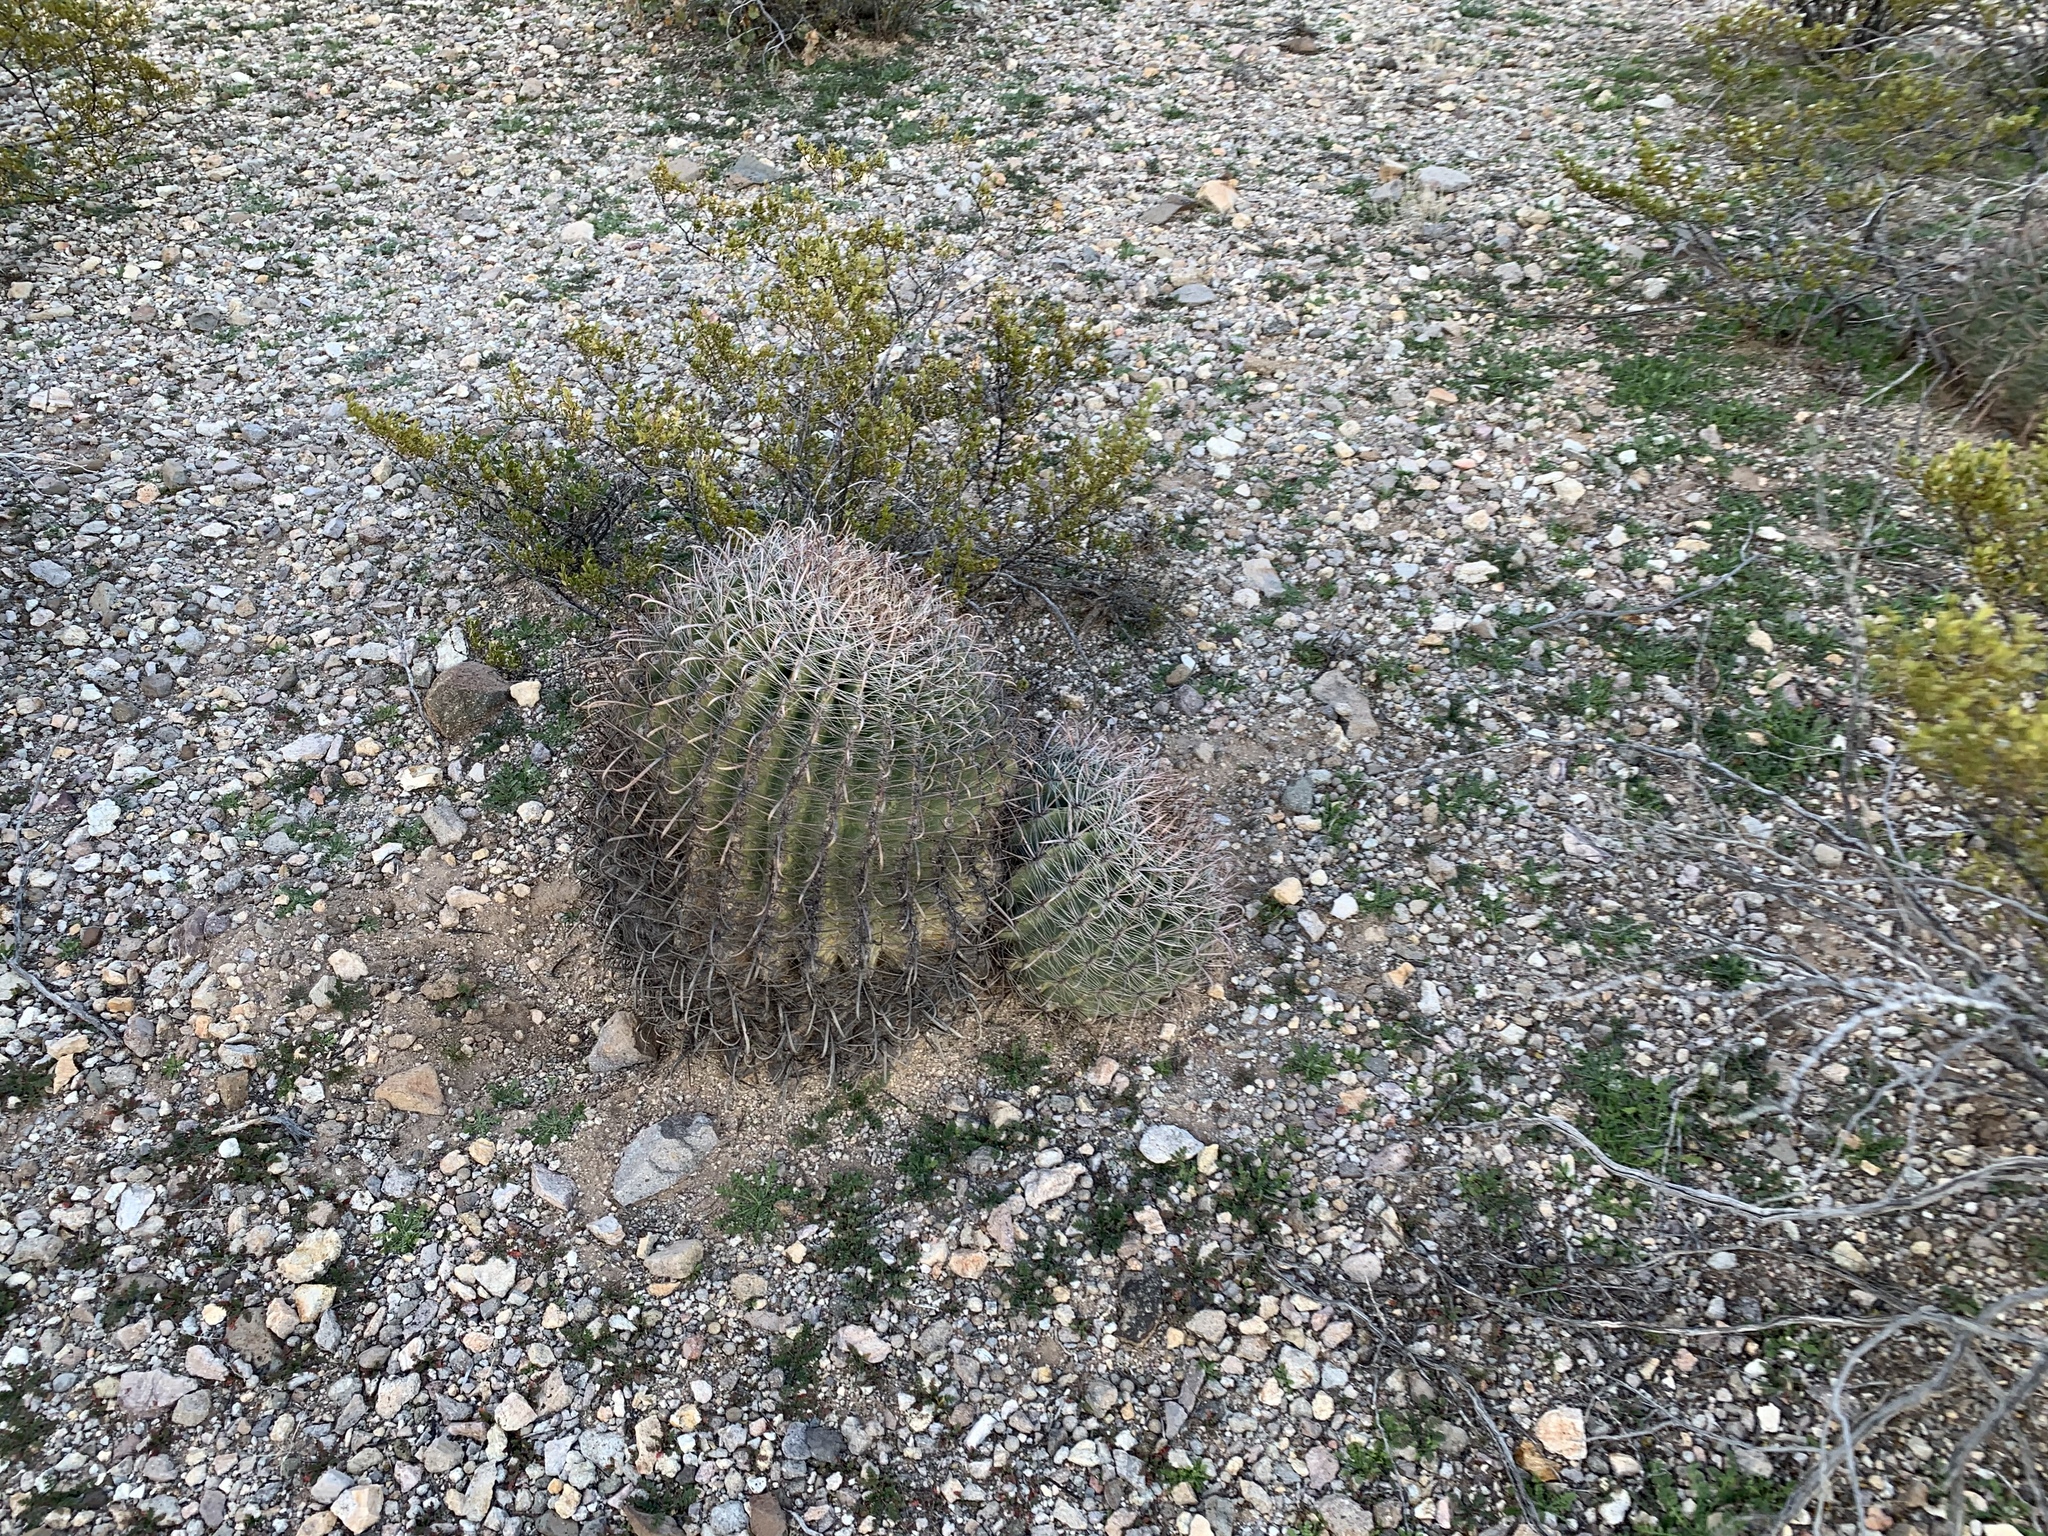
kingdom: Plantae
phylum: Tracheophyta
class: Magnoliopsida
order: Caryophyllales
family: Cactaceae
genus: Ferocactus
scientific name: Ferocactus wislizeni
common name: Candy barrel cactus
